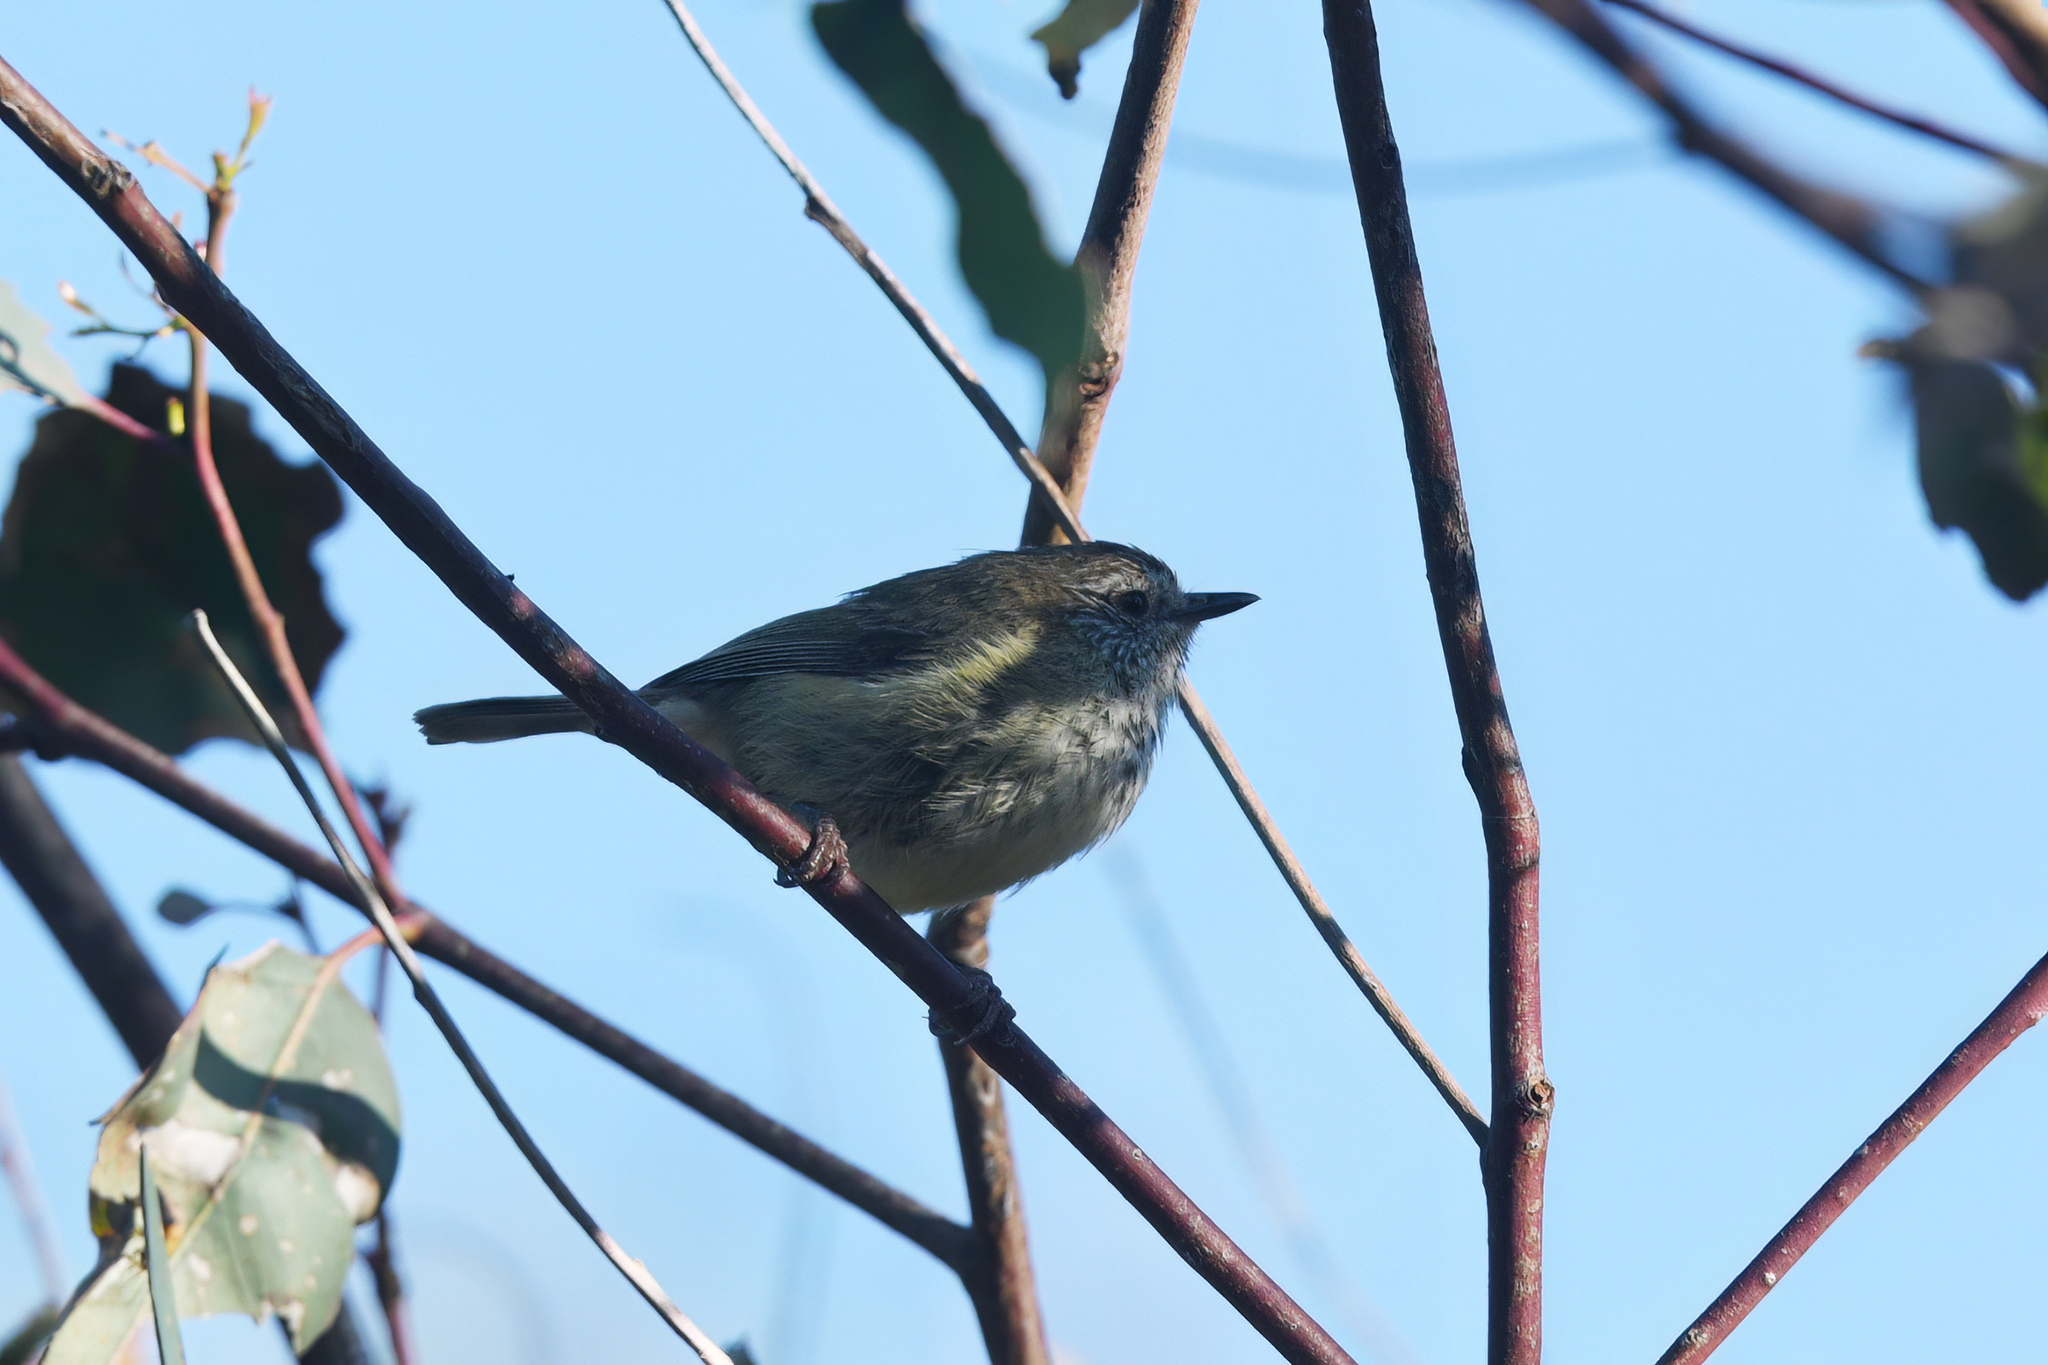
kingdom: Animalia
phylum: Chordata
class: Aves
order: Passeriformes
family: Acanthizidae
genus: Acanthiza
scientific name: Acanthiza lineata
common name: Striated thornbill
